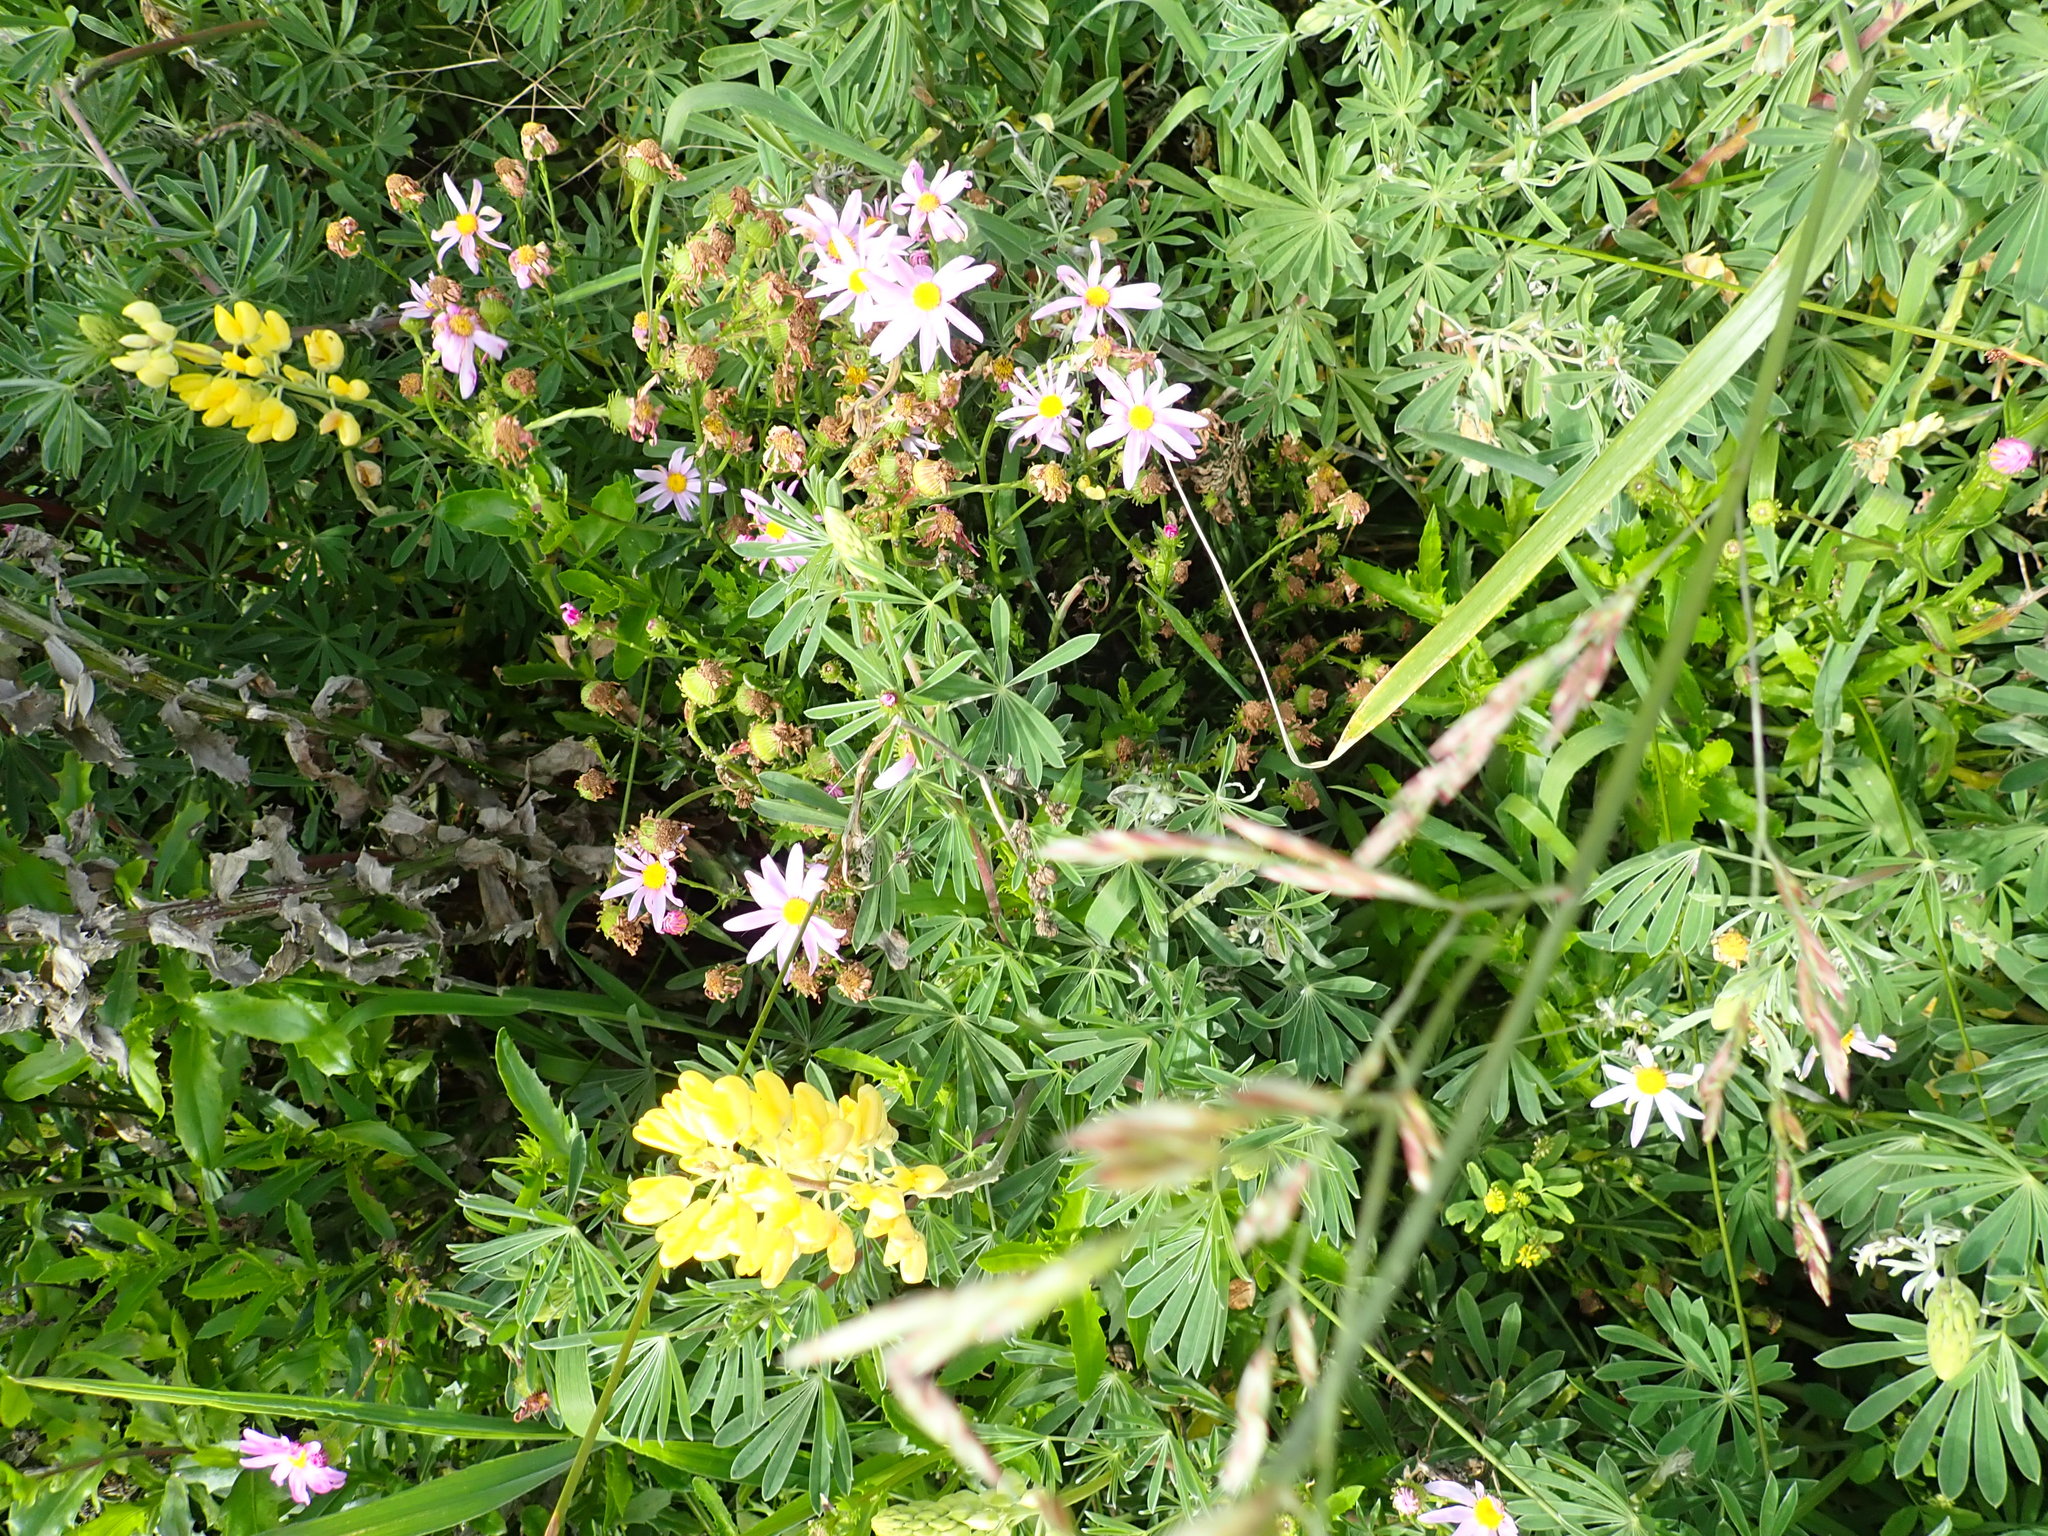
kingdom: Plantae
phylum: Tracheophyta
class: Magnoliopsida
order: Asterales
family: Asteraceae
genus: Senecio
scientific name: Senecio glastifolius
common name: Woad-leaved ragwort
